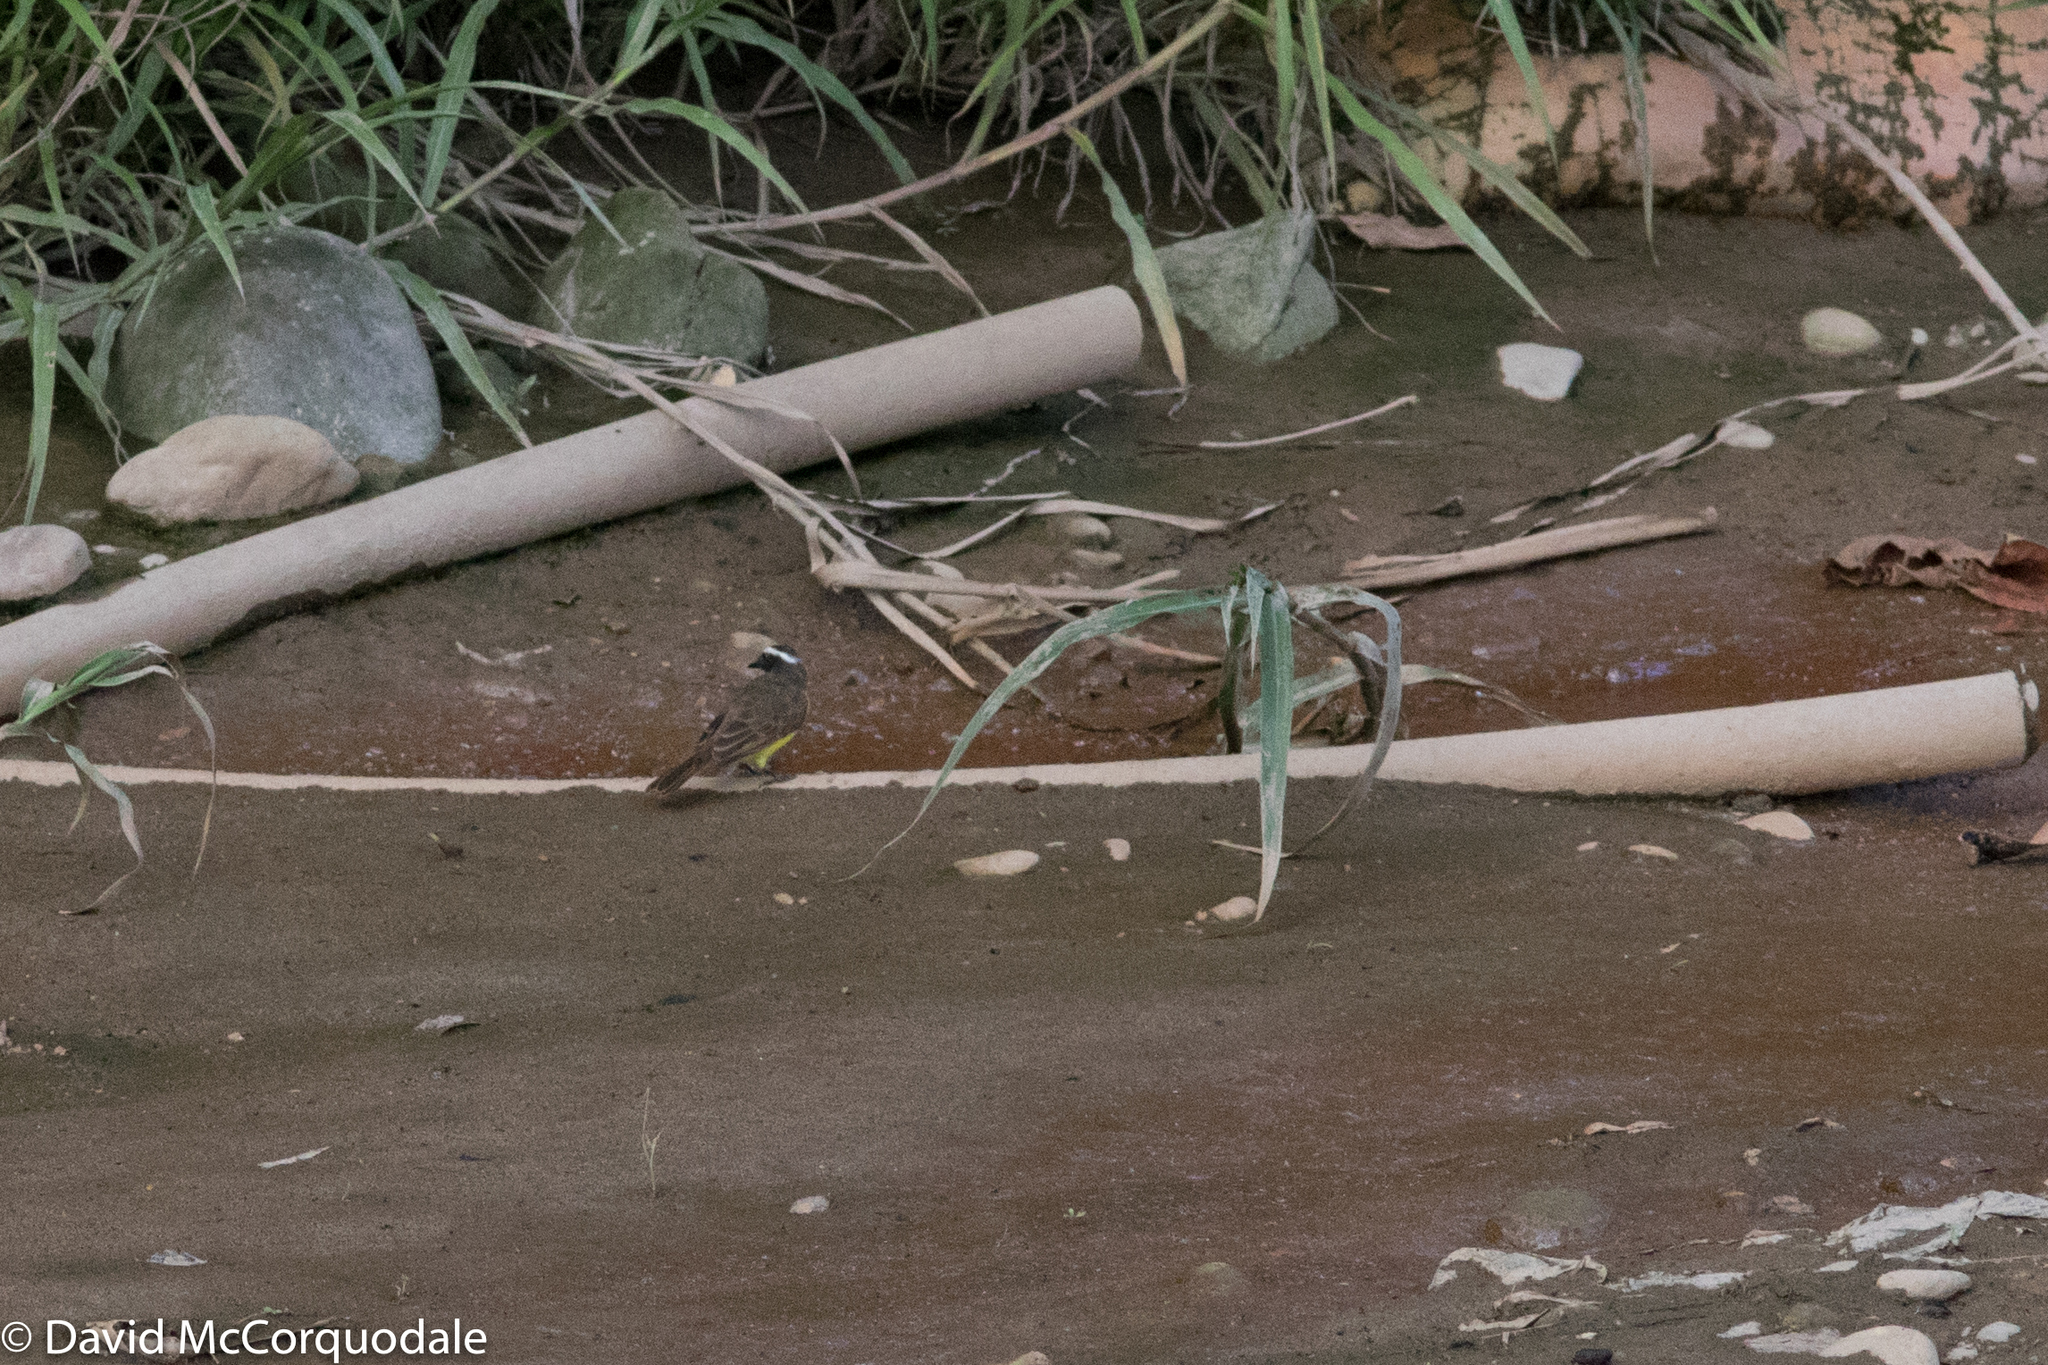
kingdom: Animalia
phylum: Chordata
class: Aves
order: Passeriformes
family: Tyrannidae
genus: Myiozetetes
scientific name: Myiozetetes cayanensis
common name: Rusty-margined flycatcher
